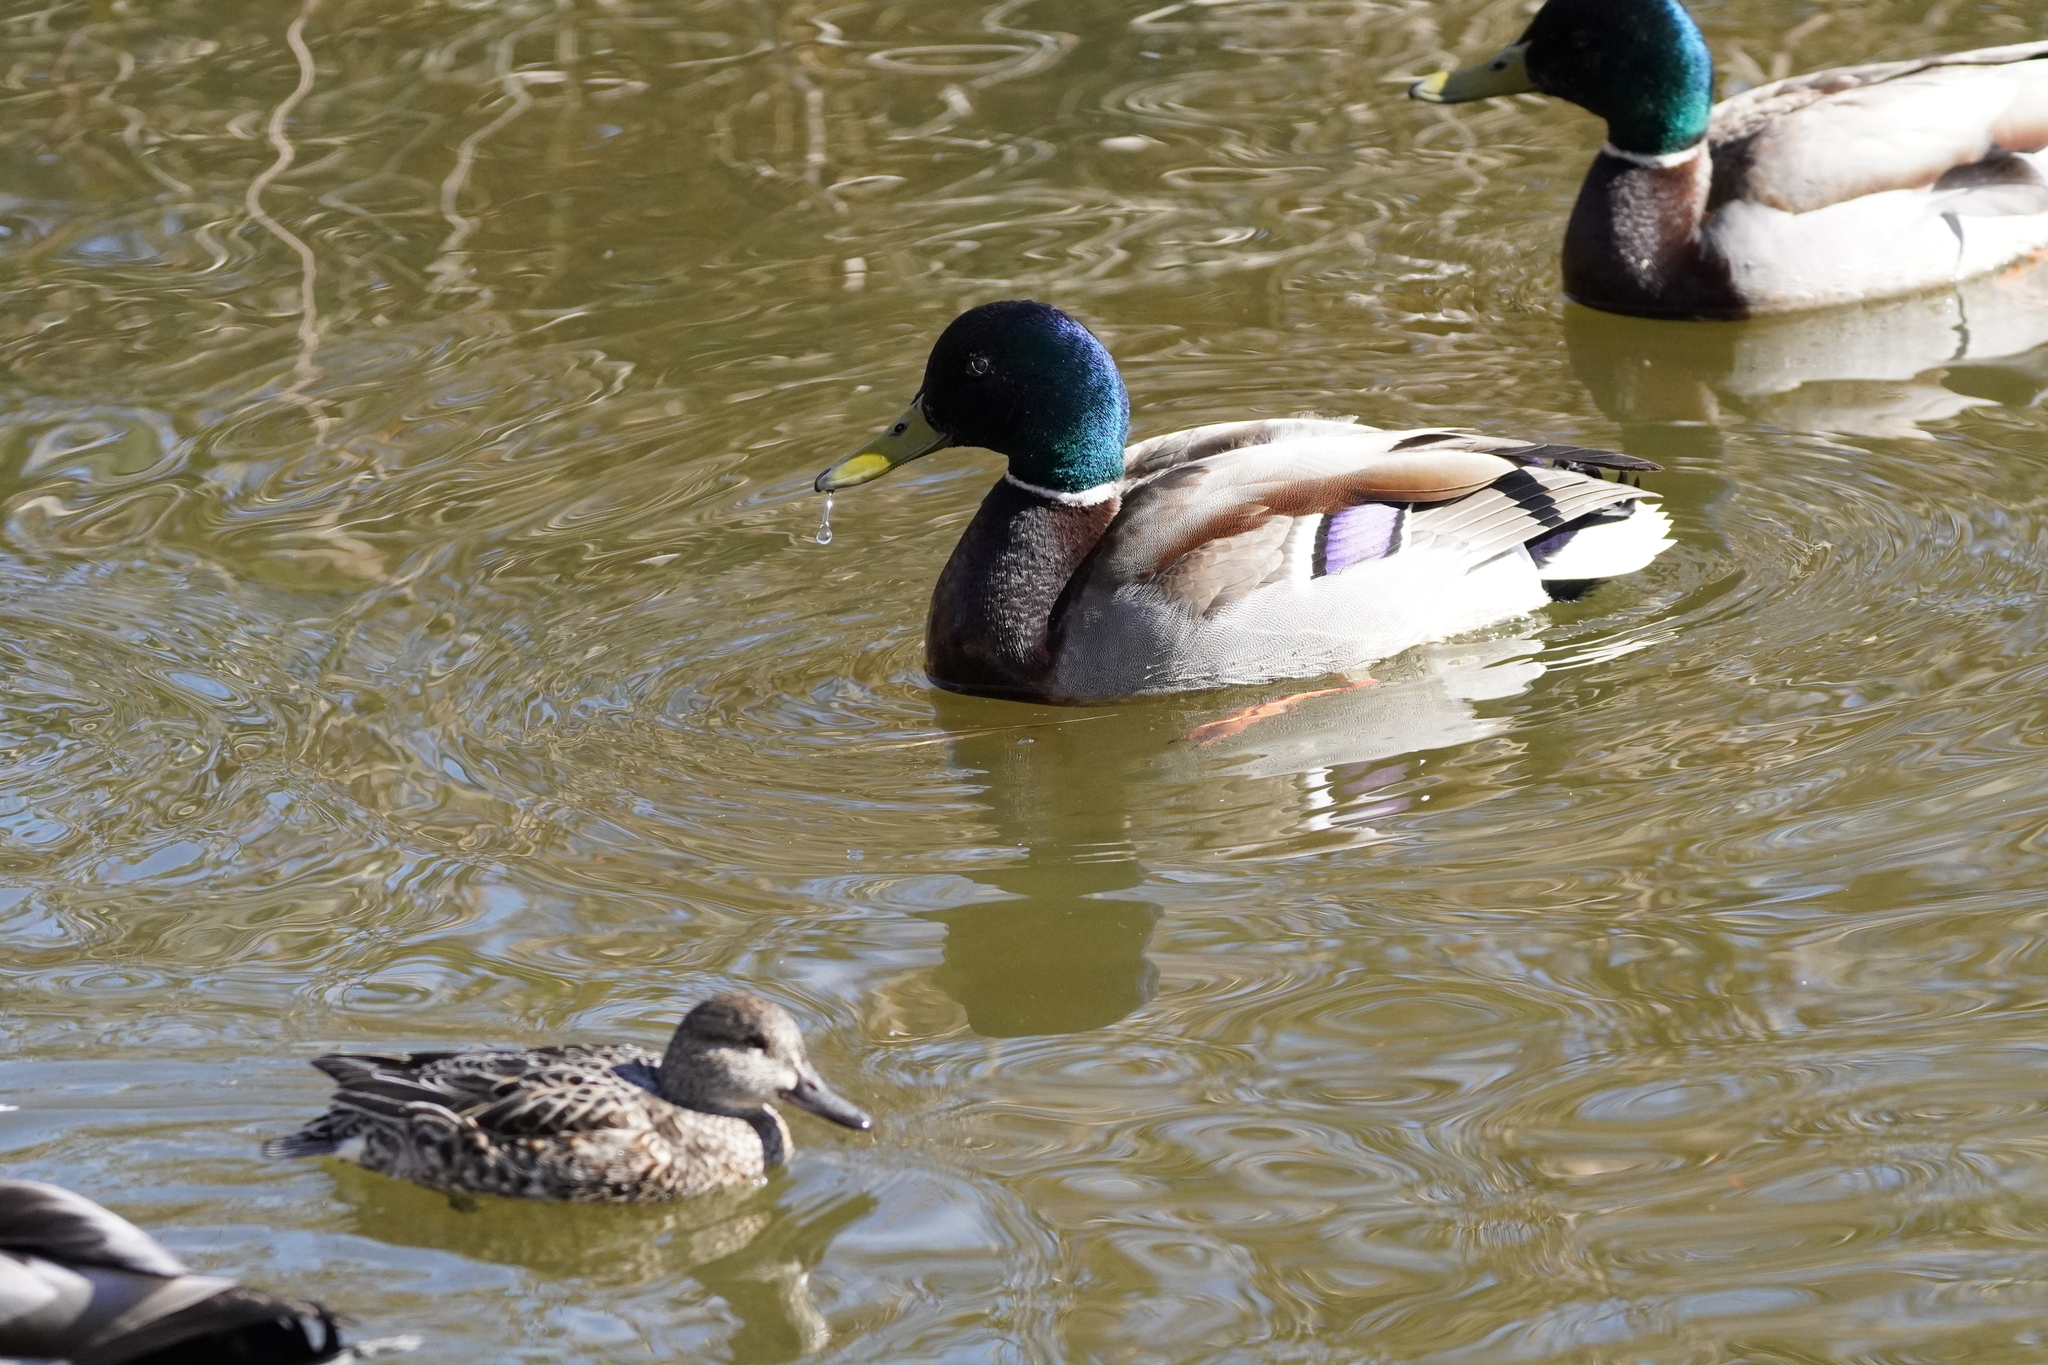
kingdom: Animalia
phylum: Chordata
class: Aves
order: Anseriformes
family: Anatidae
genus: Anas
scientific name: Anas platyrhynchos
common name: Mallard
